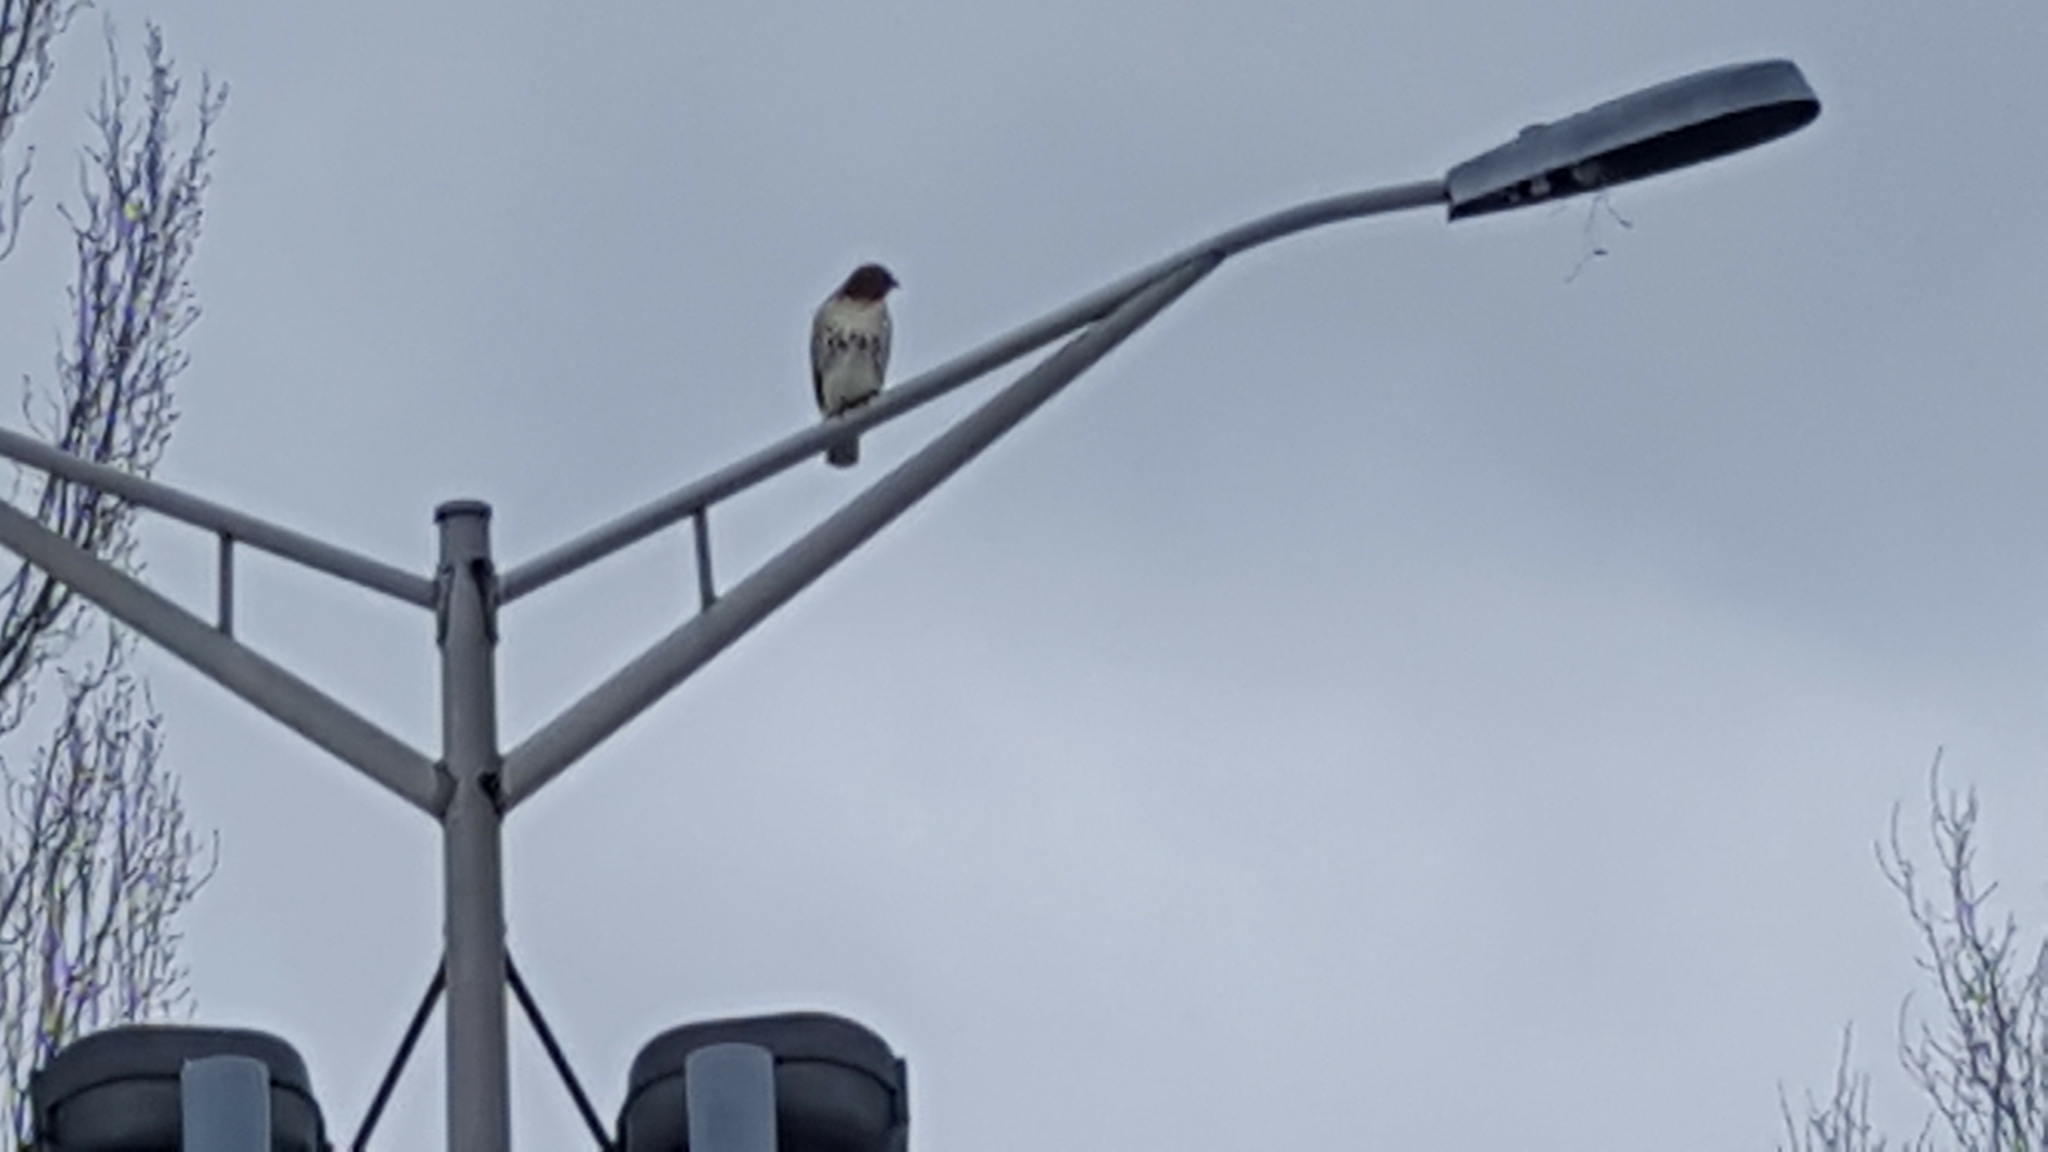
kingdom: Animalia
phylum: Chordata
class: Aves
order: Accipitriformes
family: Accipitridae
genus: Buteo
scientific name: Buteo jamaicensis
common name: Red-tailed hawk
